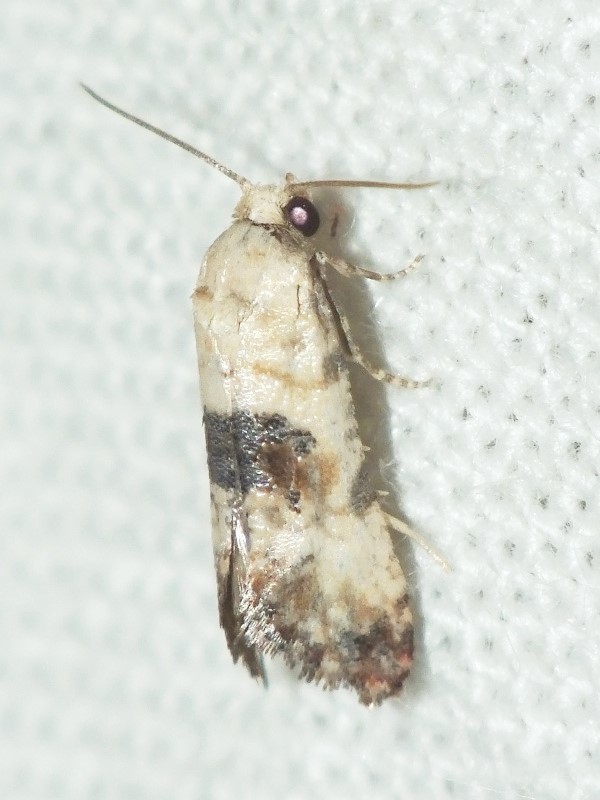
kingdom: Animalia
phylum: Arthropoda
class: Insecta
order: Lepidoptera
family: Tortricidae
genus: Cochylis
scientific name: Cochylis Pontoturania posterana
